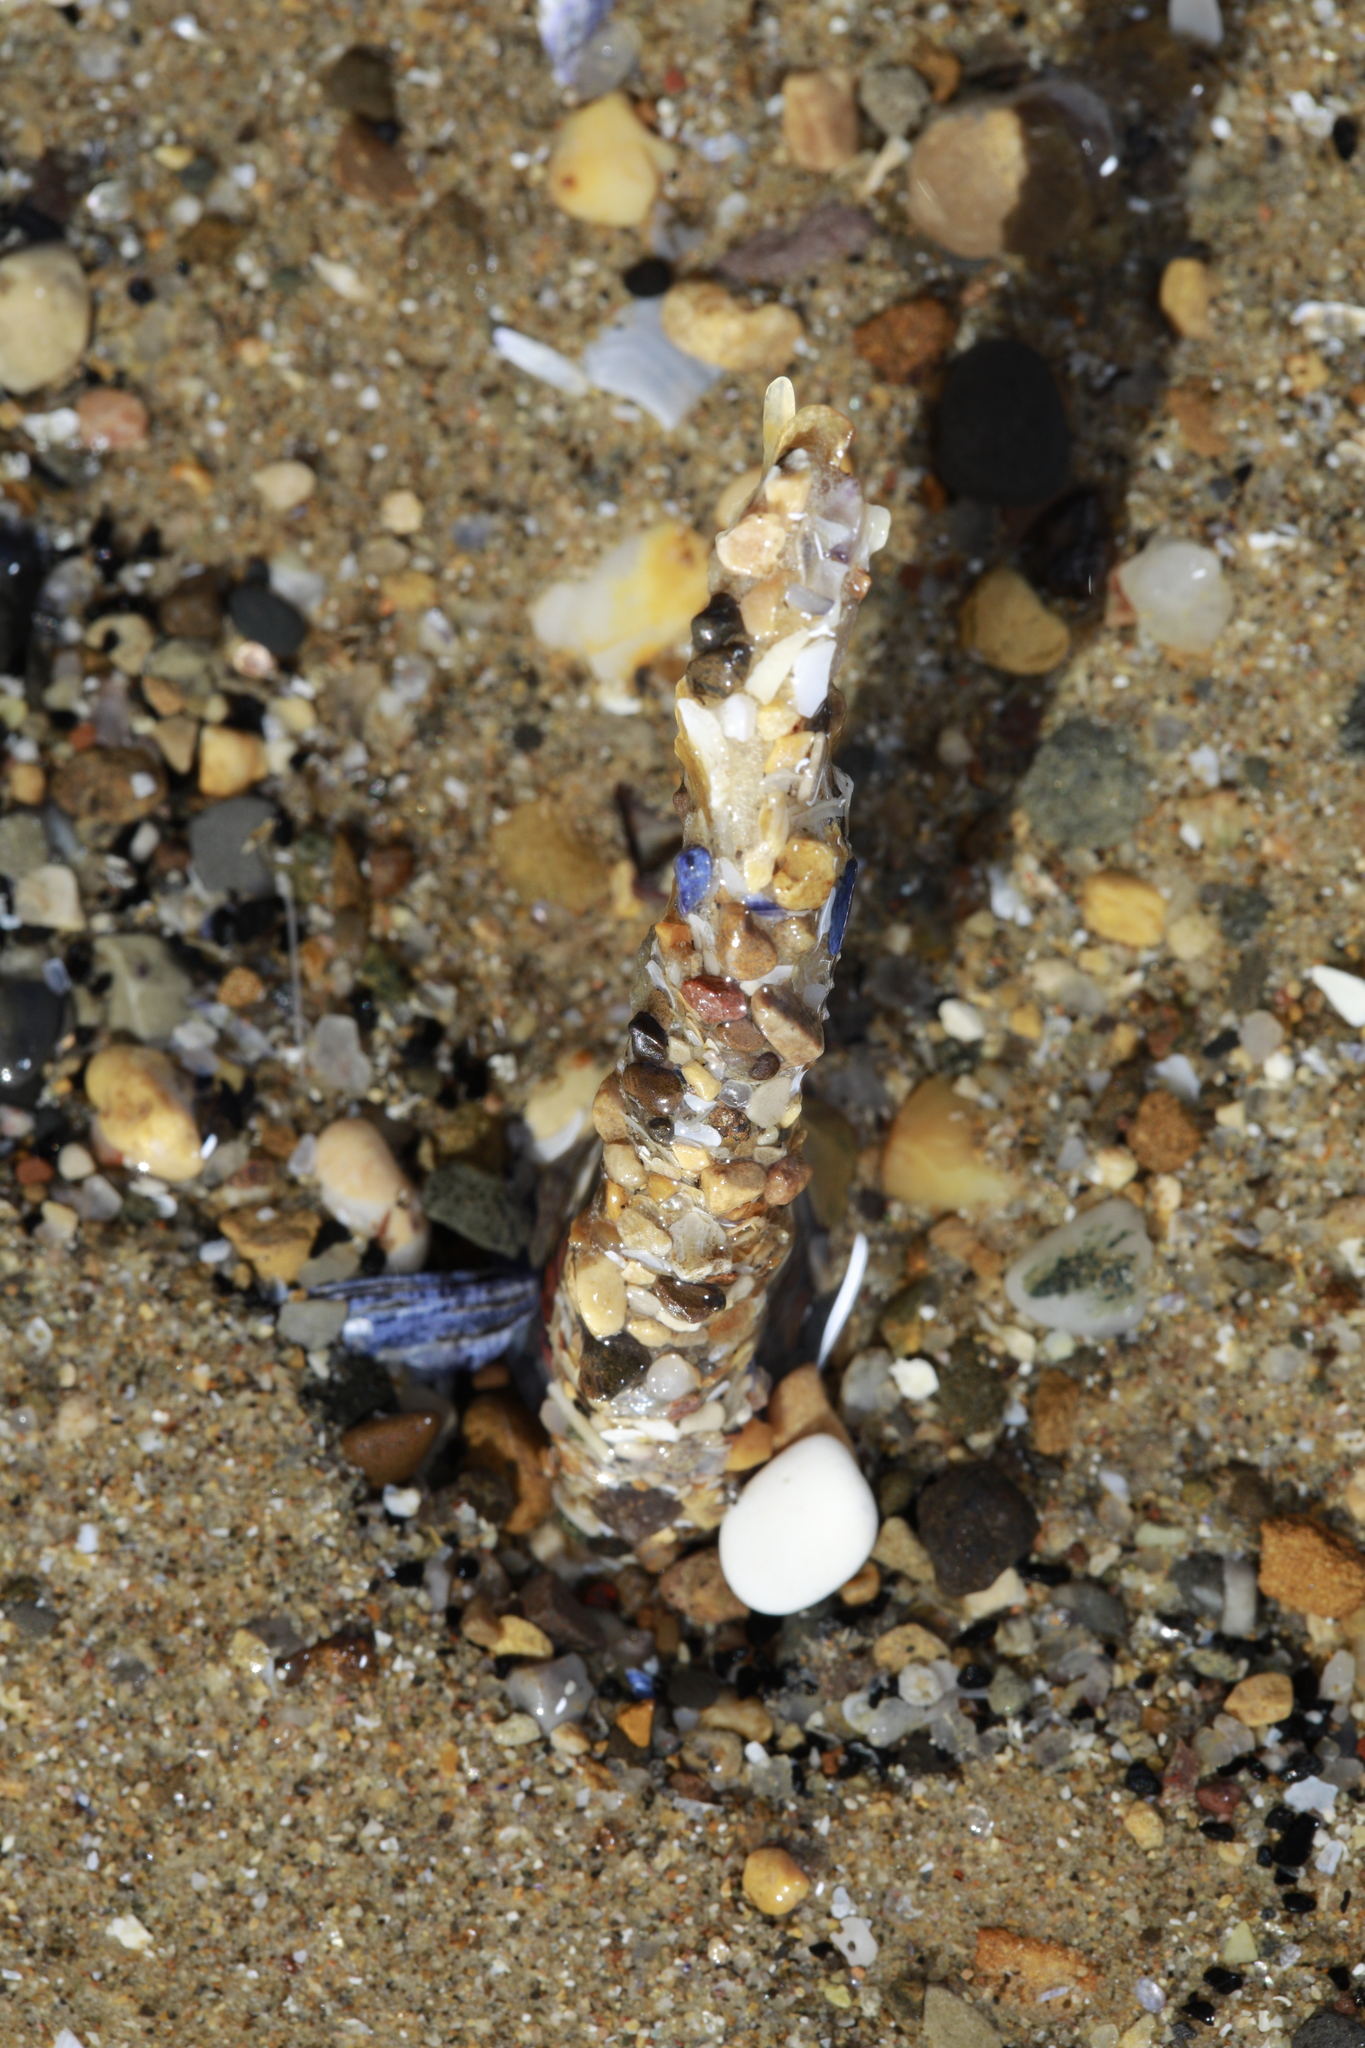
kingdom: Animalia
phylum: Annelida
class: Polychaeta
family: Terebellidae
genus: Lanice
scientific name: Lanice conchilega
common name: Sand mason
